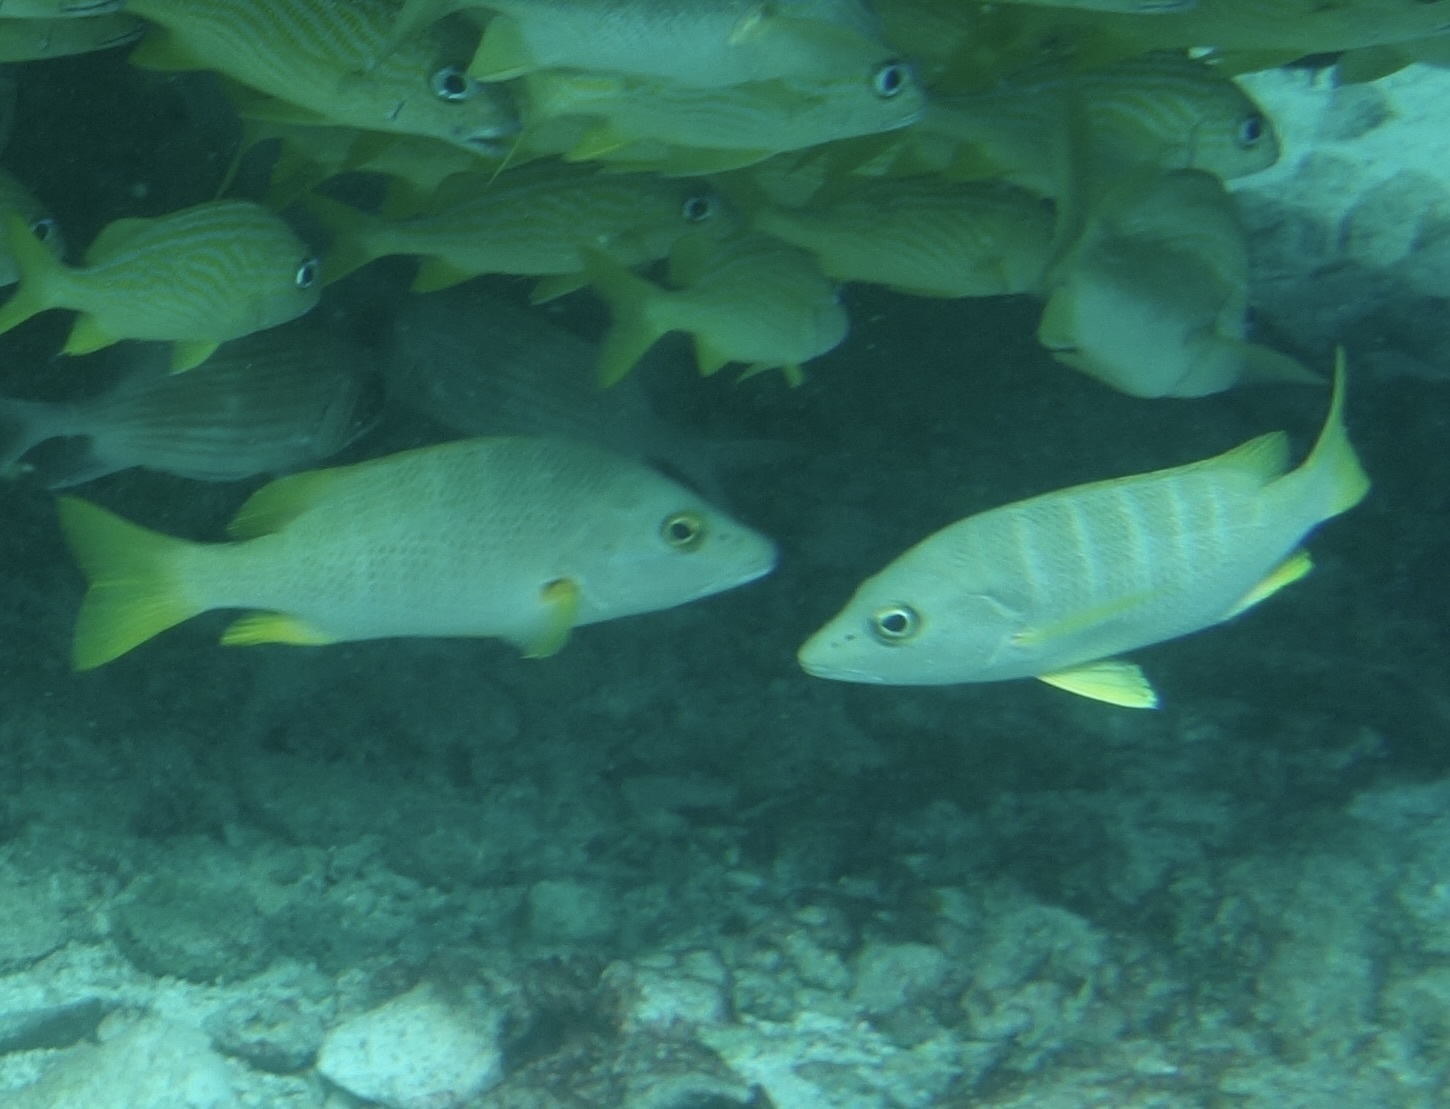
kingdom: Animalia
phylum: Chordata
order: Perciformes
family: Lutjanidae
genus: Lutjanus
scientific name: Lutjanus apodus
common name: Schoolmaster
